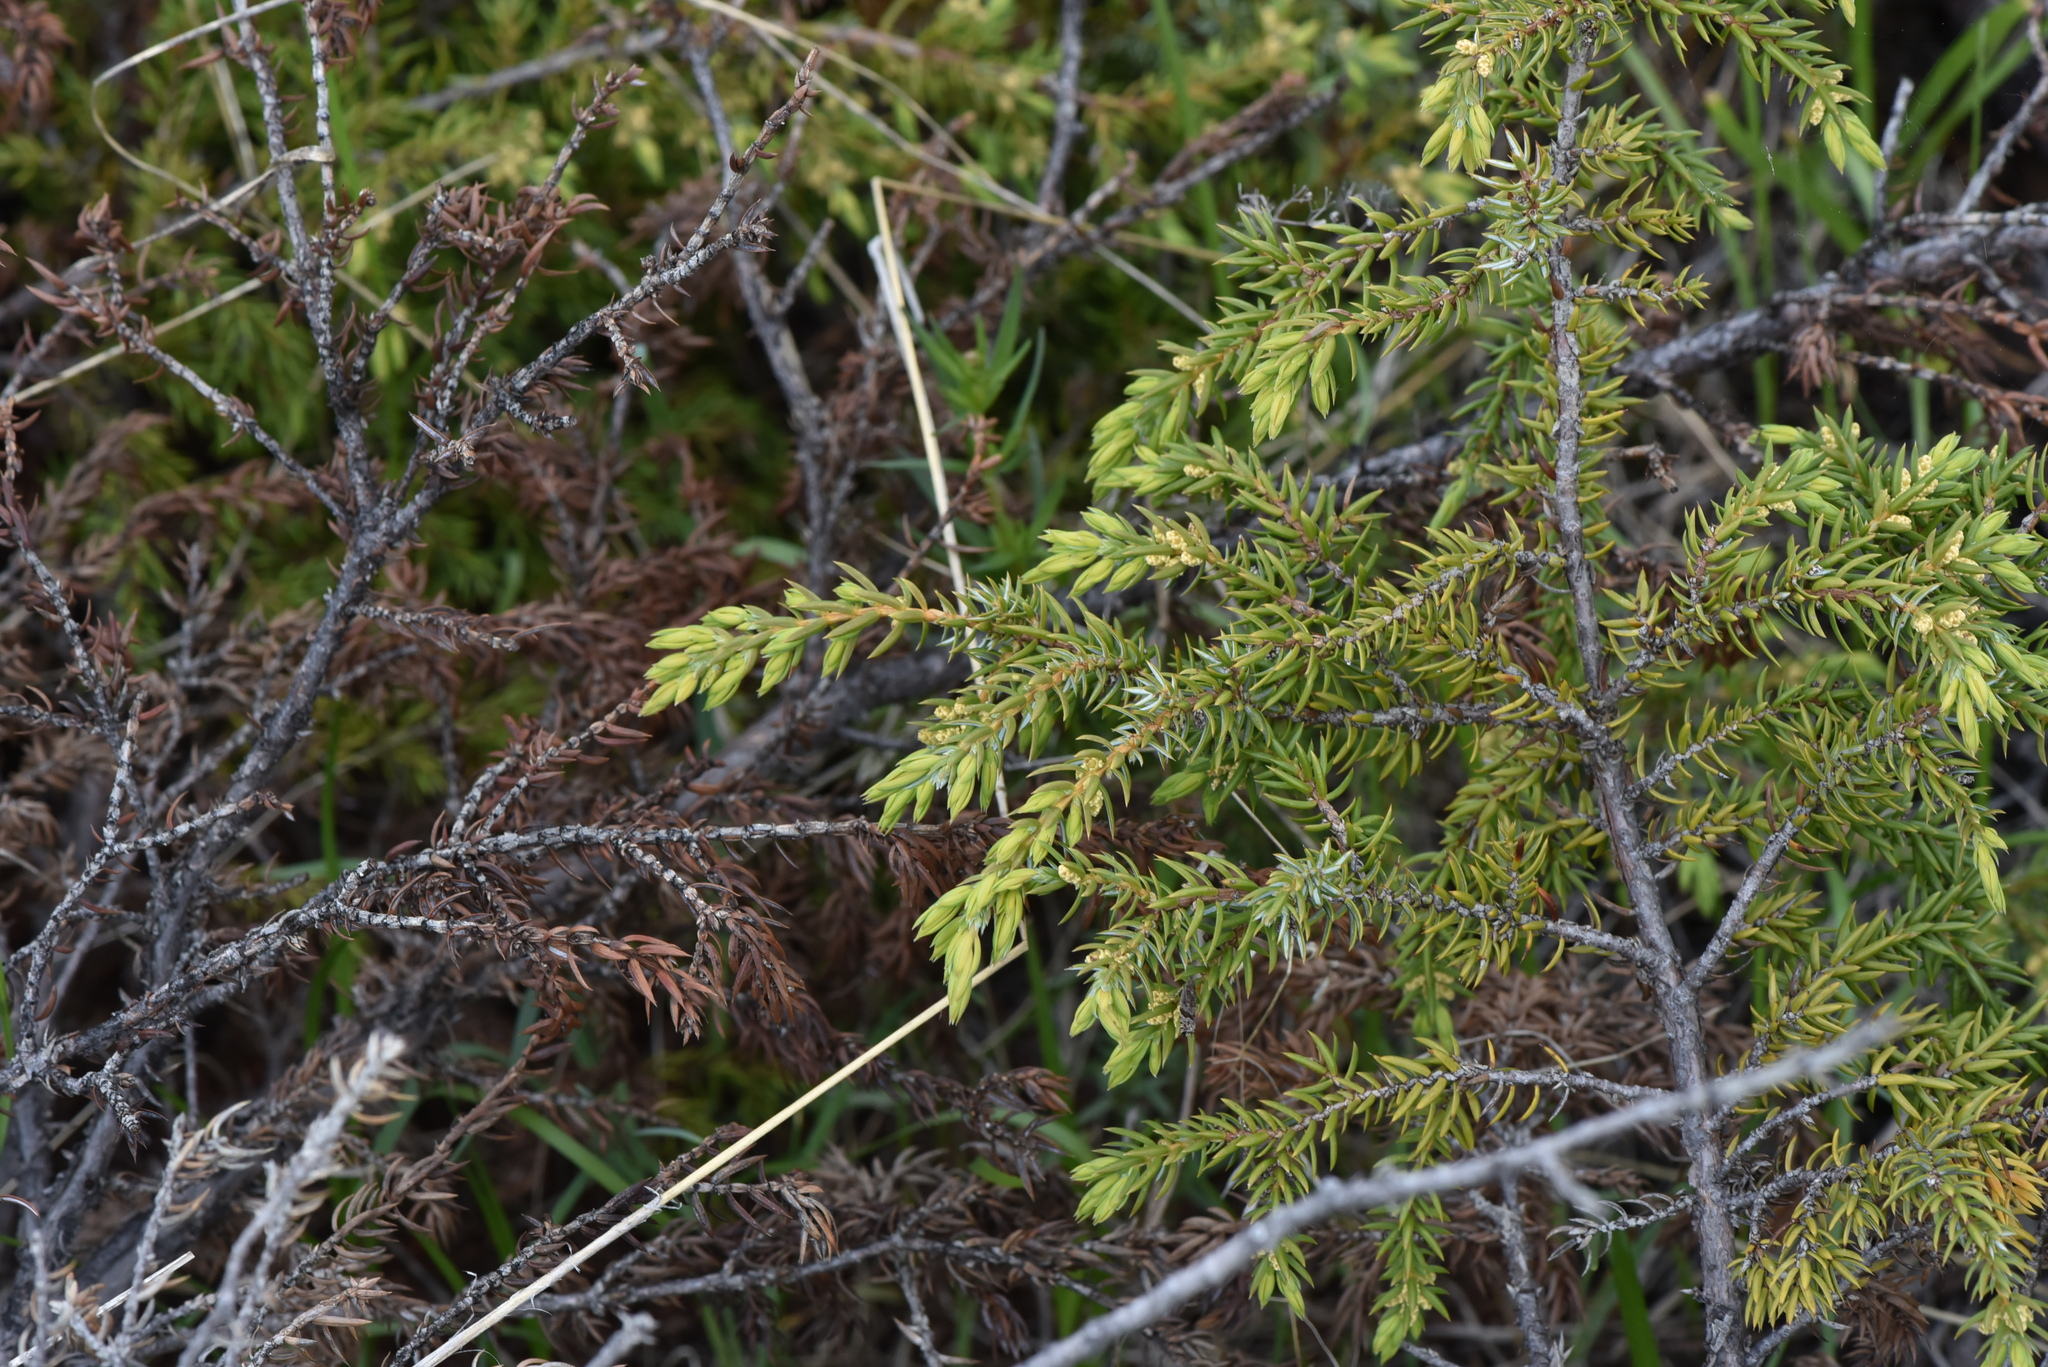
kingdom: Plantae
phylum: Tracheophyta
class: Pinopsida
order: Pinales
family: Cupressaceae
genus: Juniperus
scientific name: Juniperus communis
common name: Common juniper
